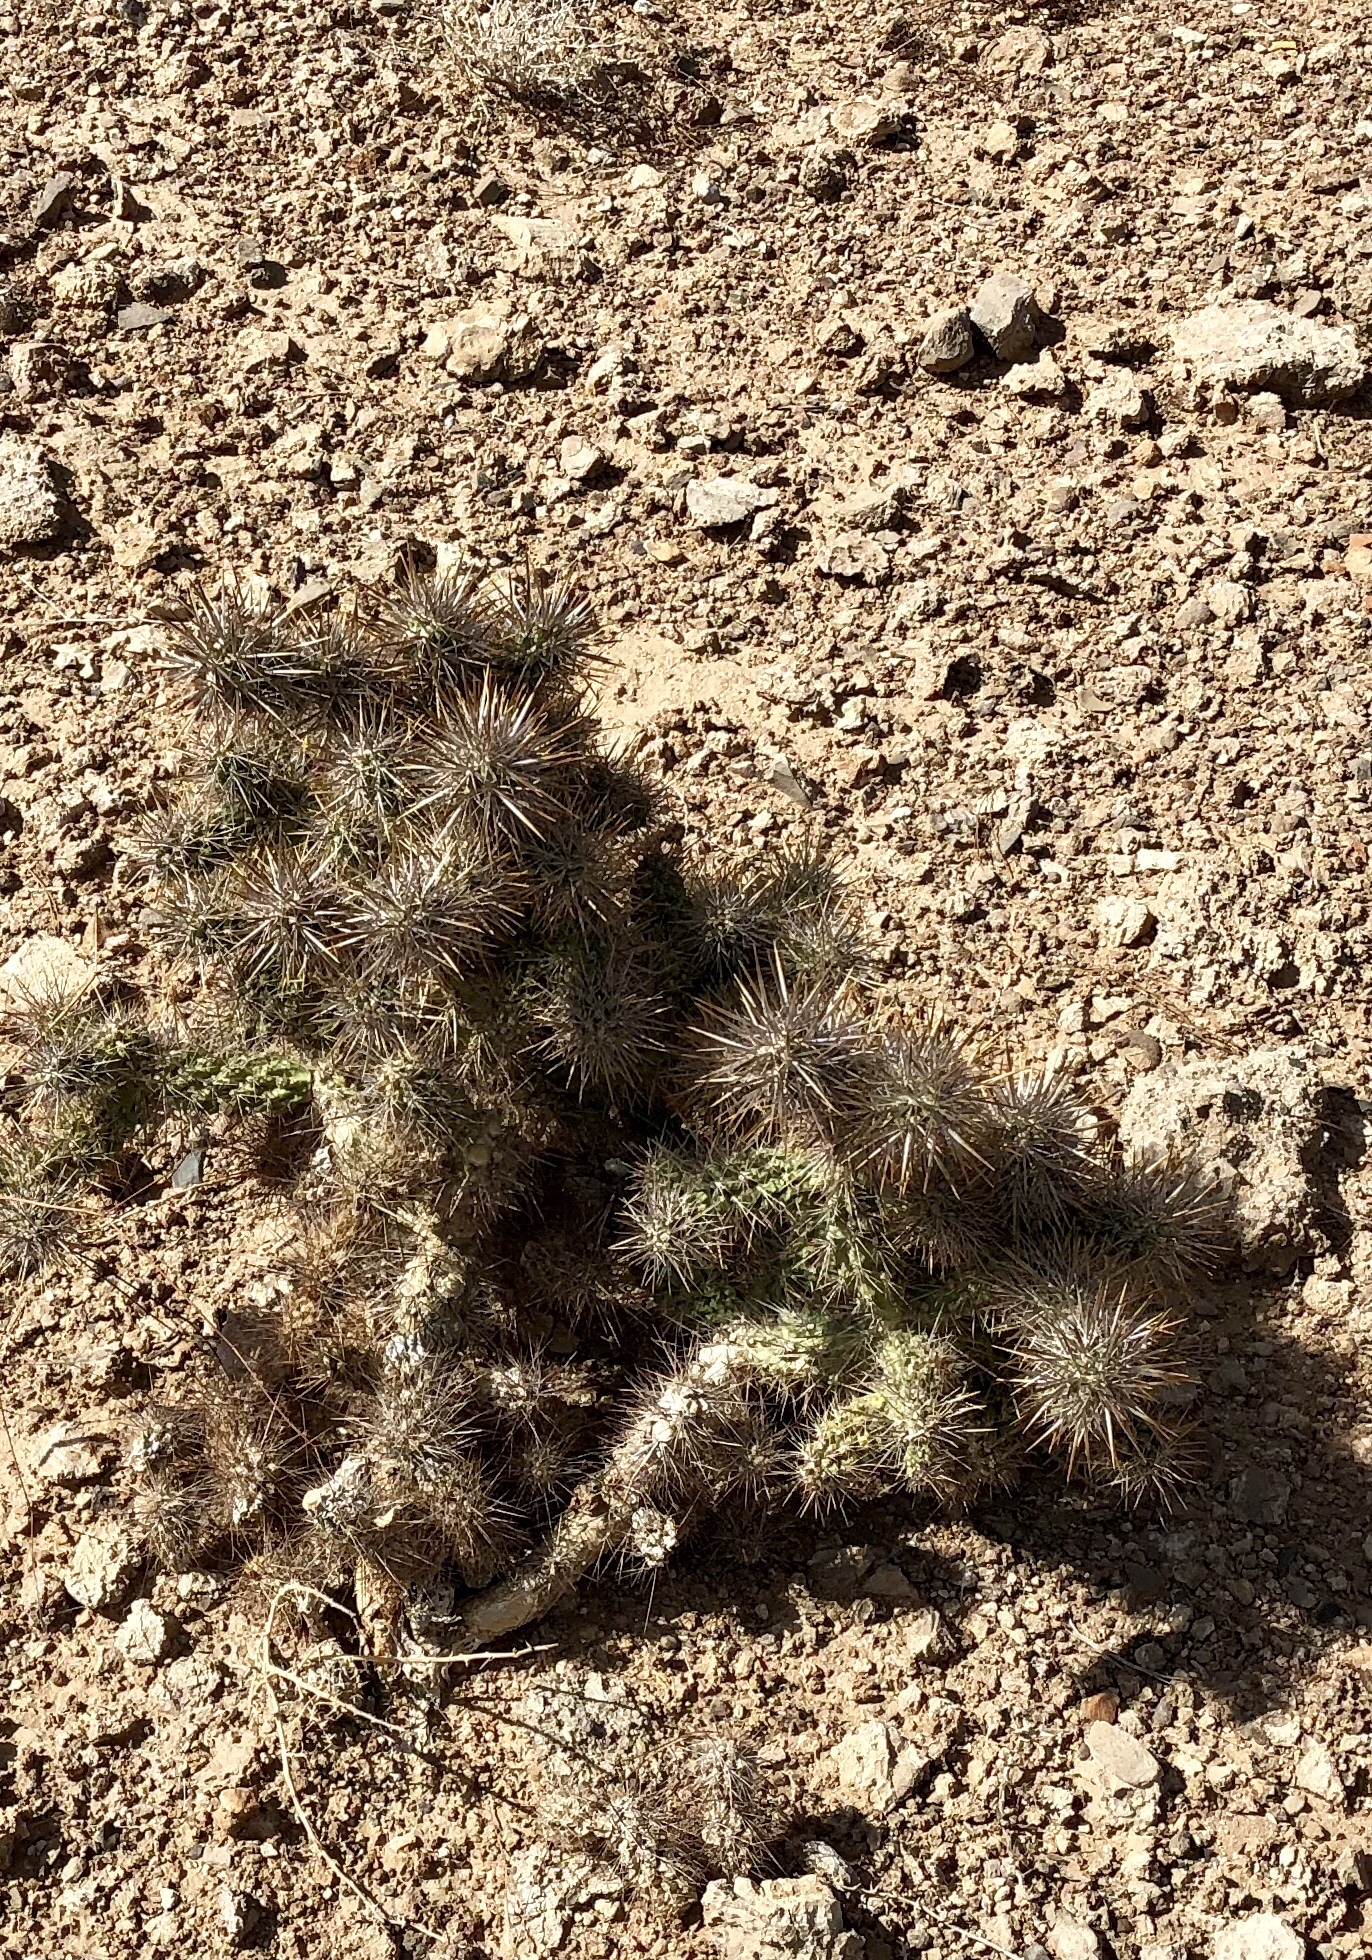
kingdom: Plantae
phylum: Tracheophyta
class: Magnoliopsida
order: Caryophyllales
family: Cactaceae
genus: Cylindropuntia
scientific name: Cylindropuntia echinocarpa
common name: Ground cholla
